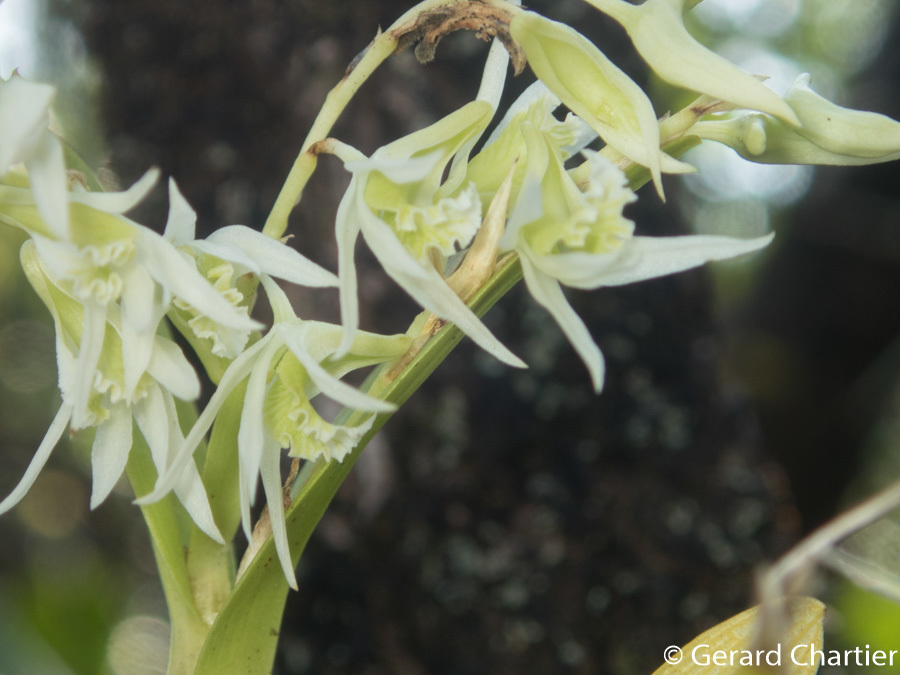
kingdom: Plantae
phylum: Tracheophyta
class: Liliopsida
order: Asparagales
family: Orchidaceae
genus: Dendrobium
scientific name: Dendrobium kratense
